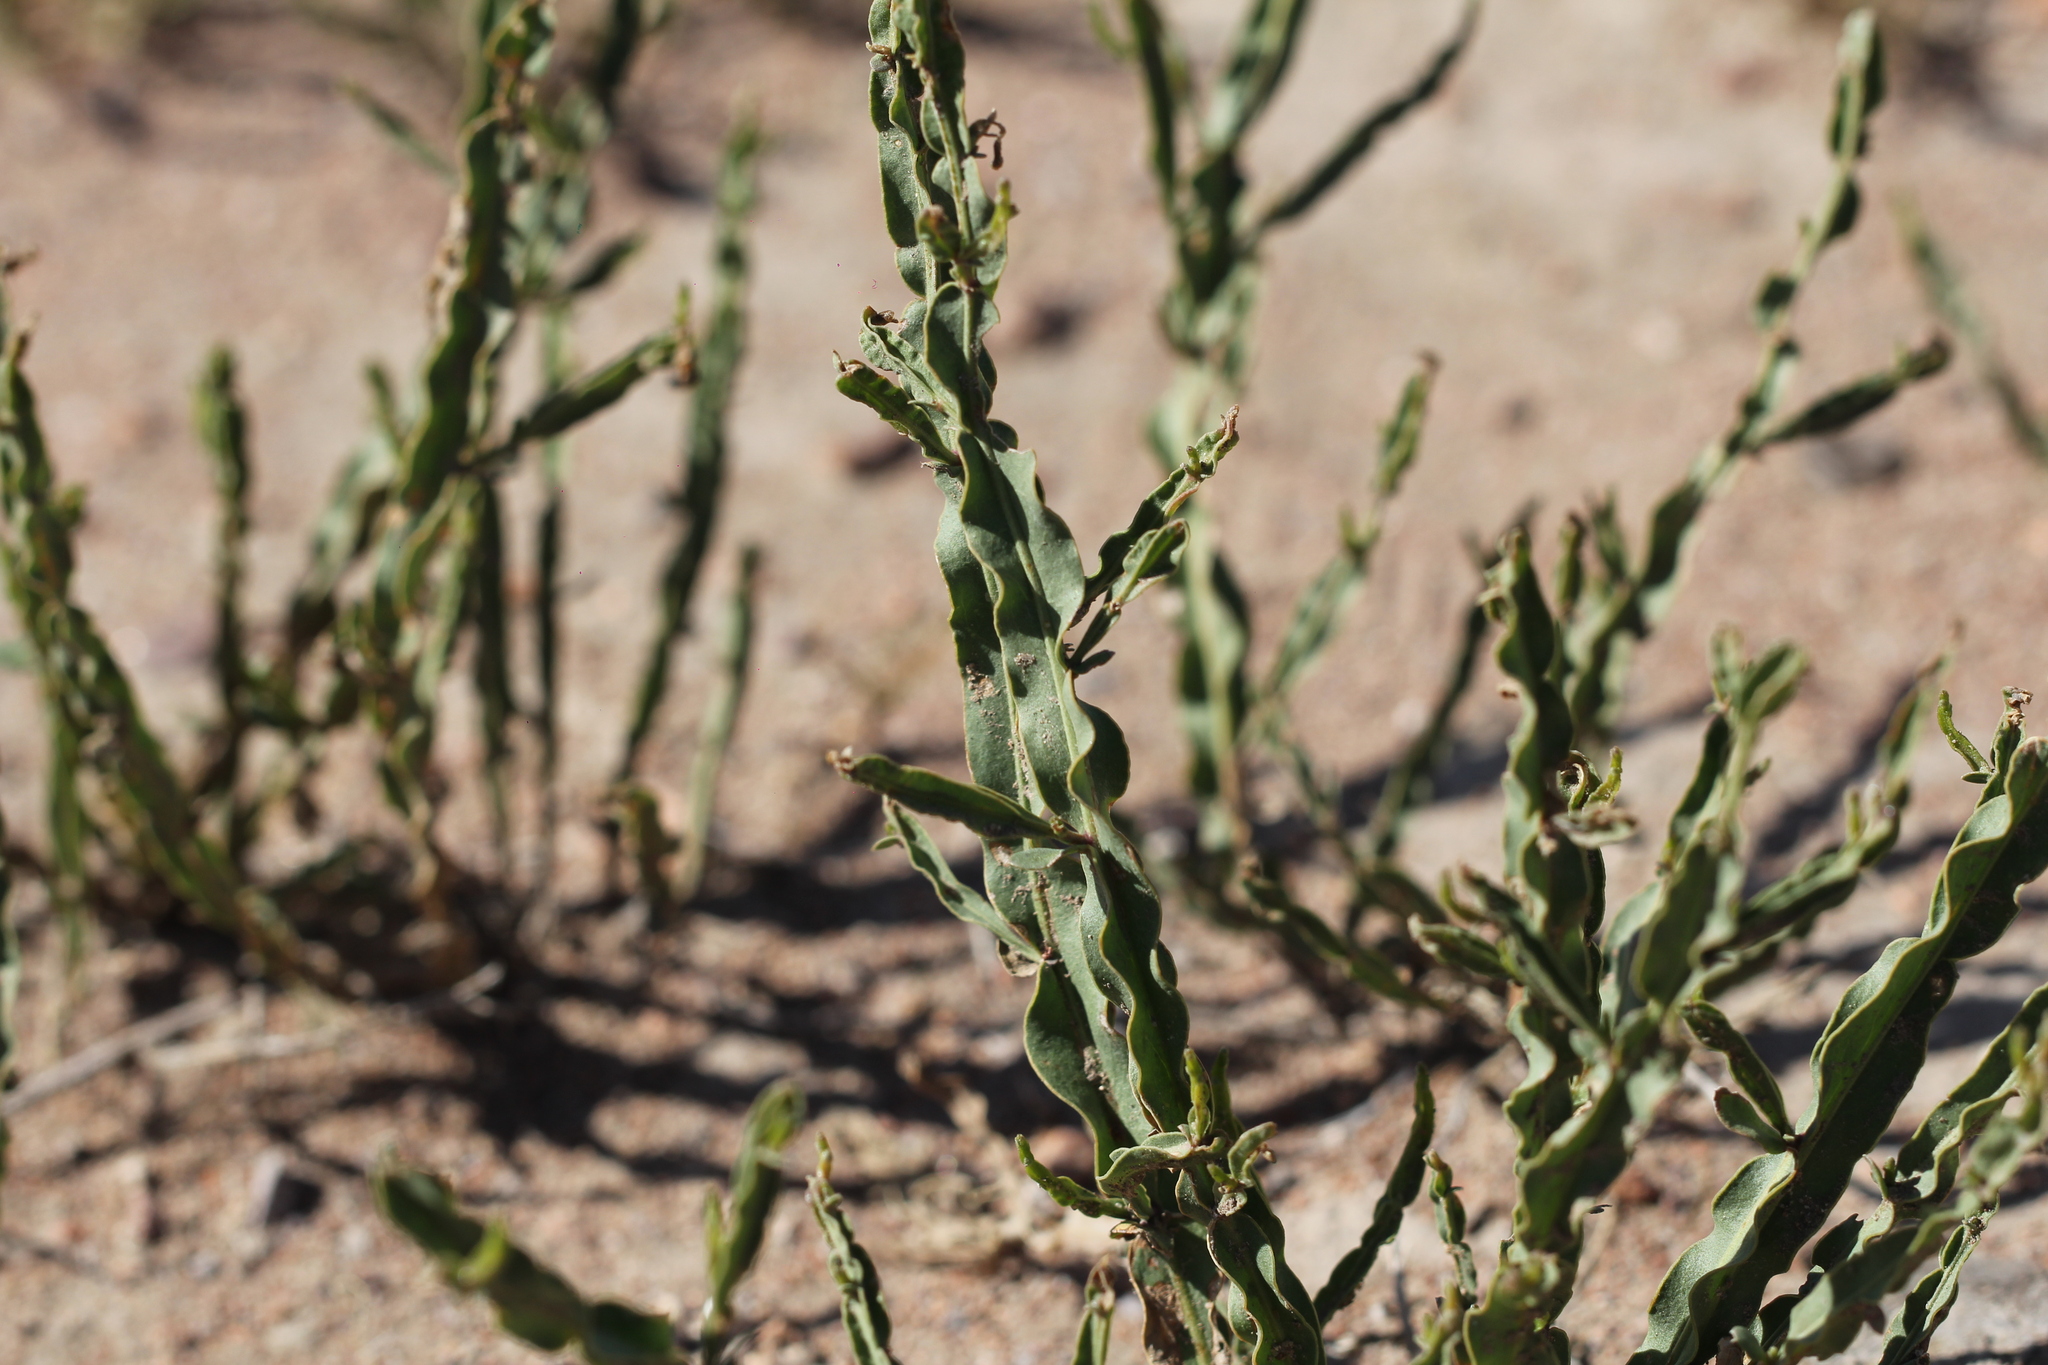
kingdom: Plantae
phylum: Tracheophyta
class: Magnoliopsida
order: Asterales
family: Asteraceae
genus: Baccharis
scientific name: Baccharis crispa
